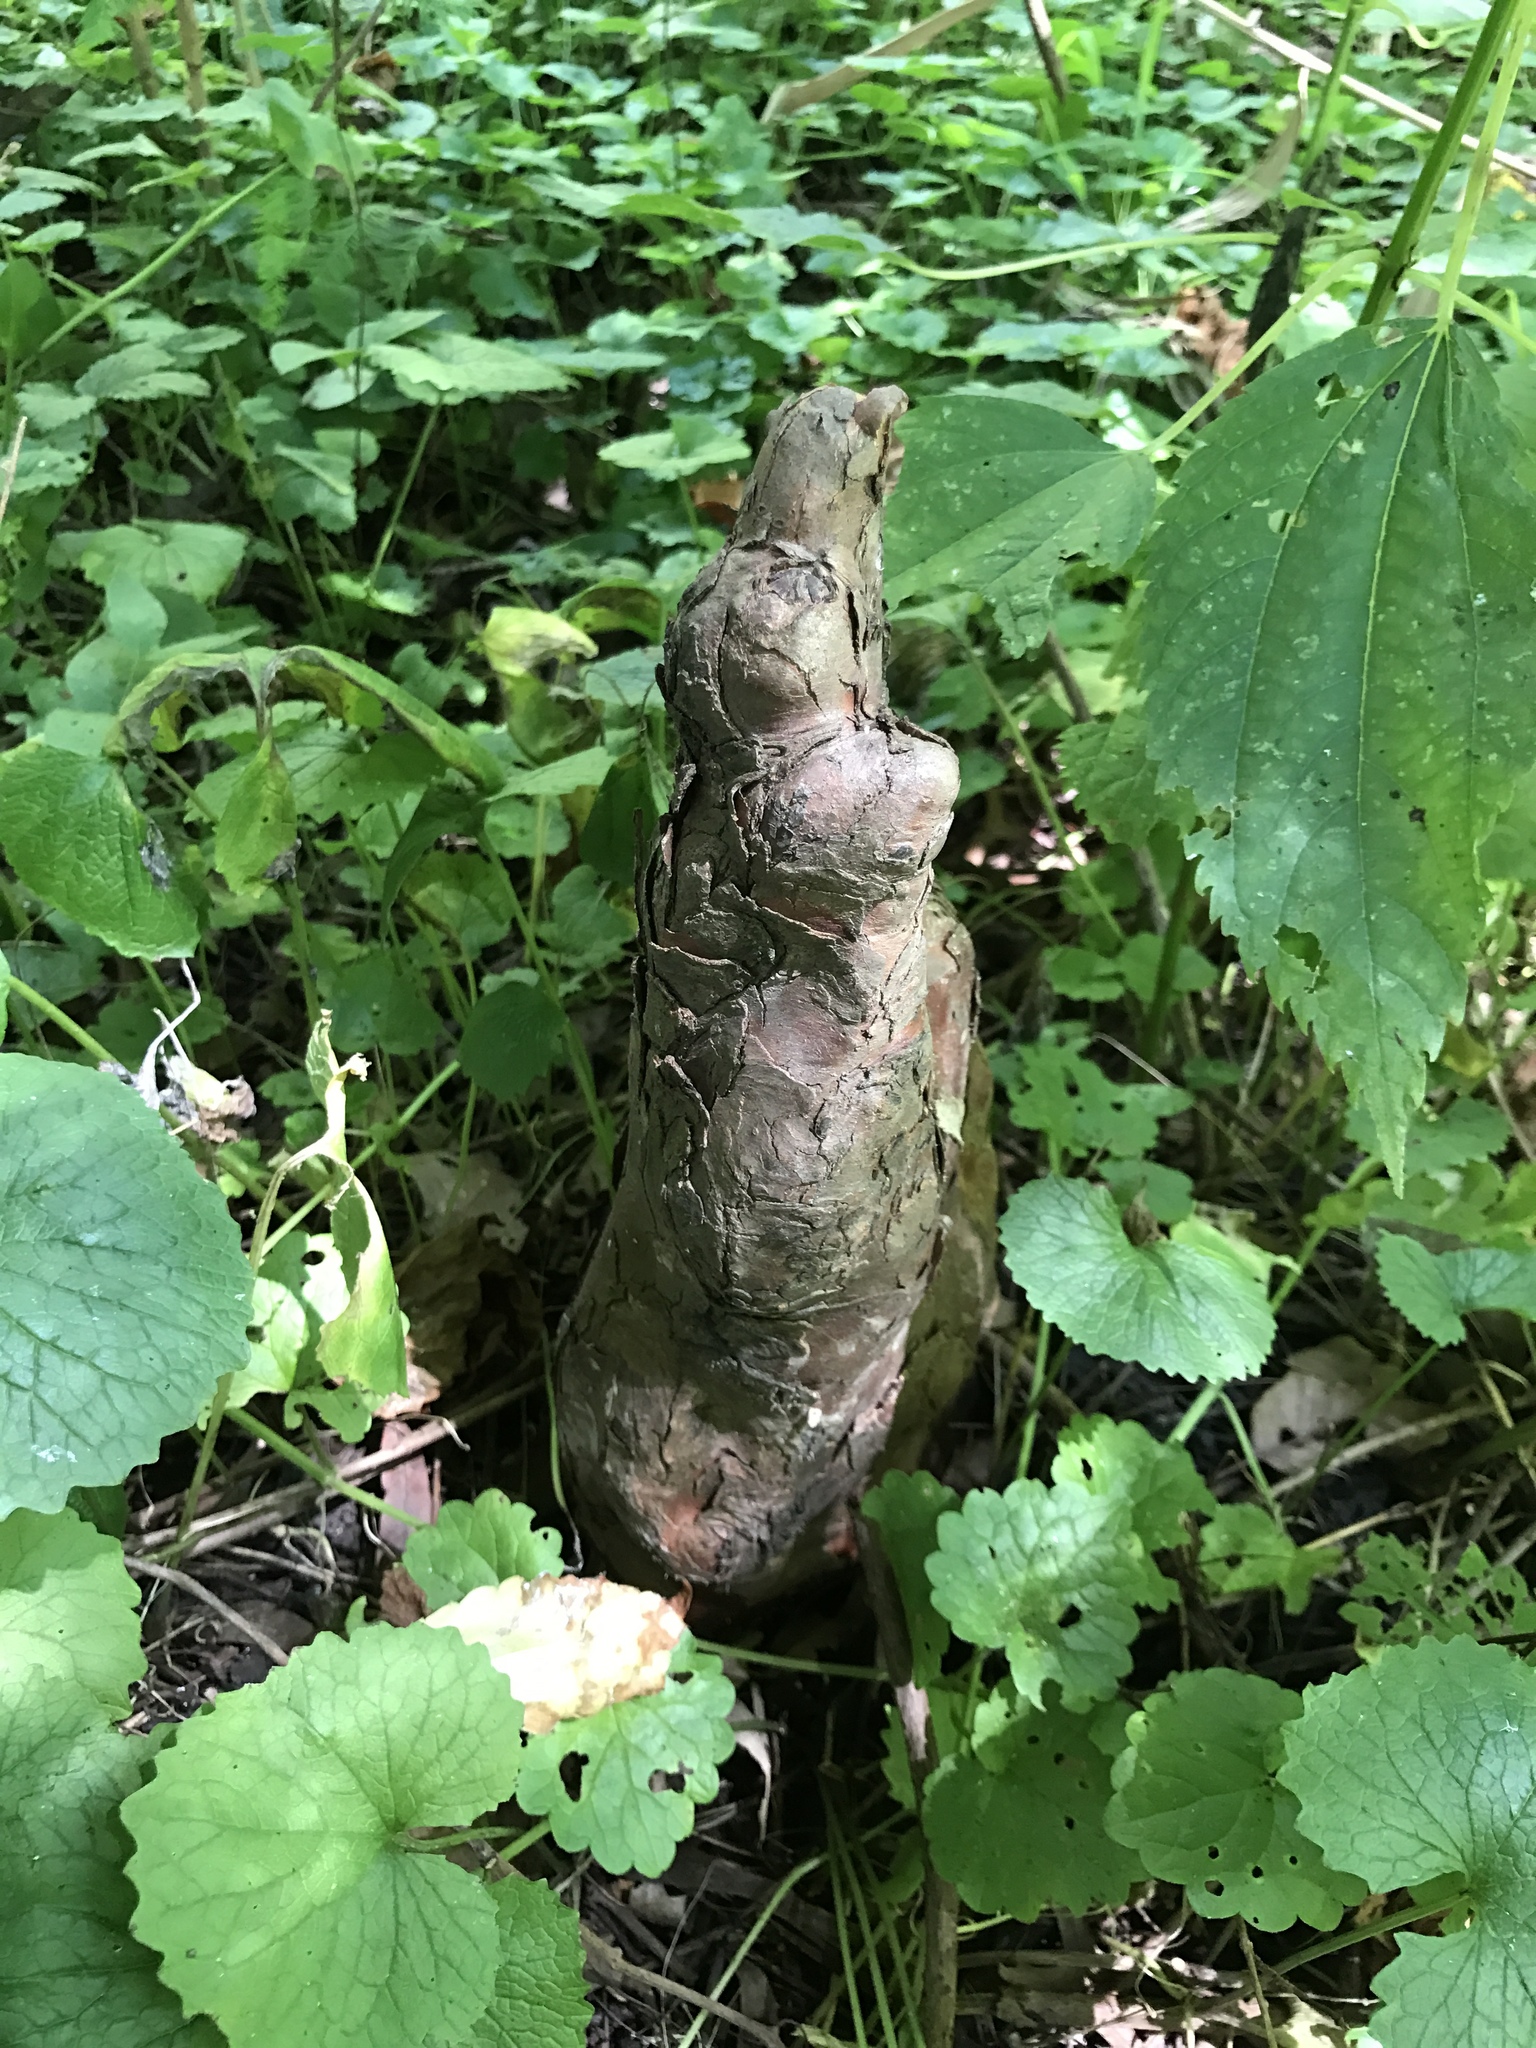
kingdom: Plantae
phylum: Tracheophyta
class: Pinopsida
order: Pinales
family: Cupressaceae
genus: Taxodium
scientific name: Taxodium distichum
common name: Bald cypress
